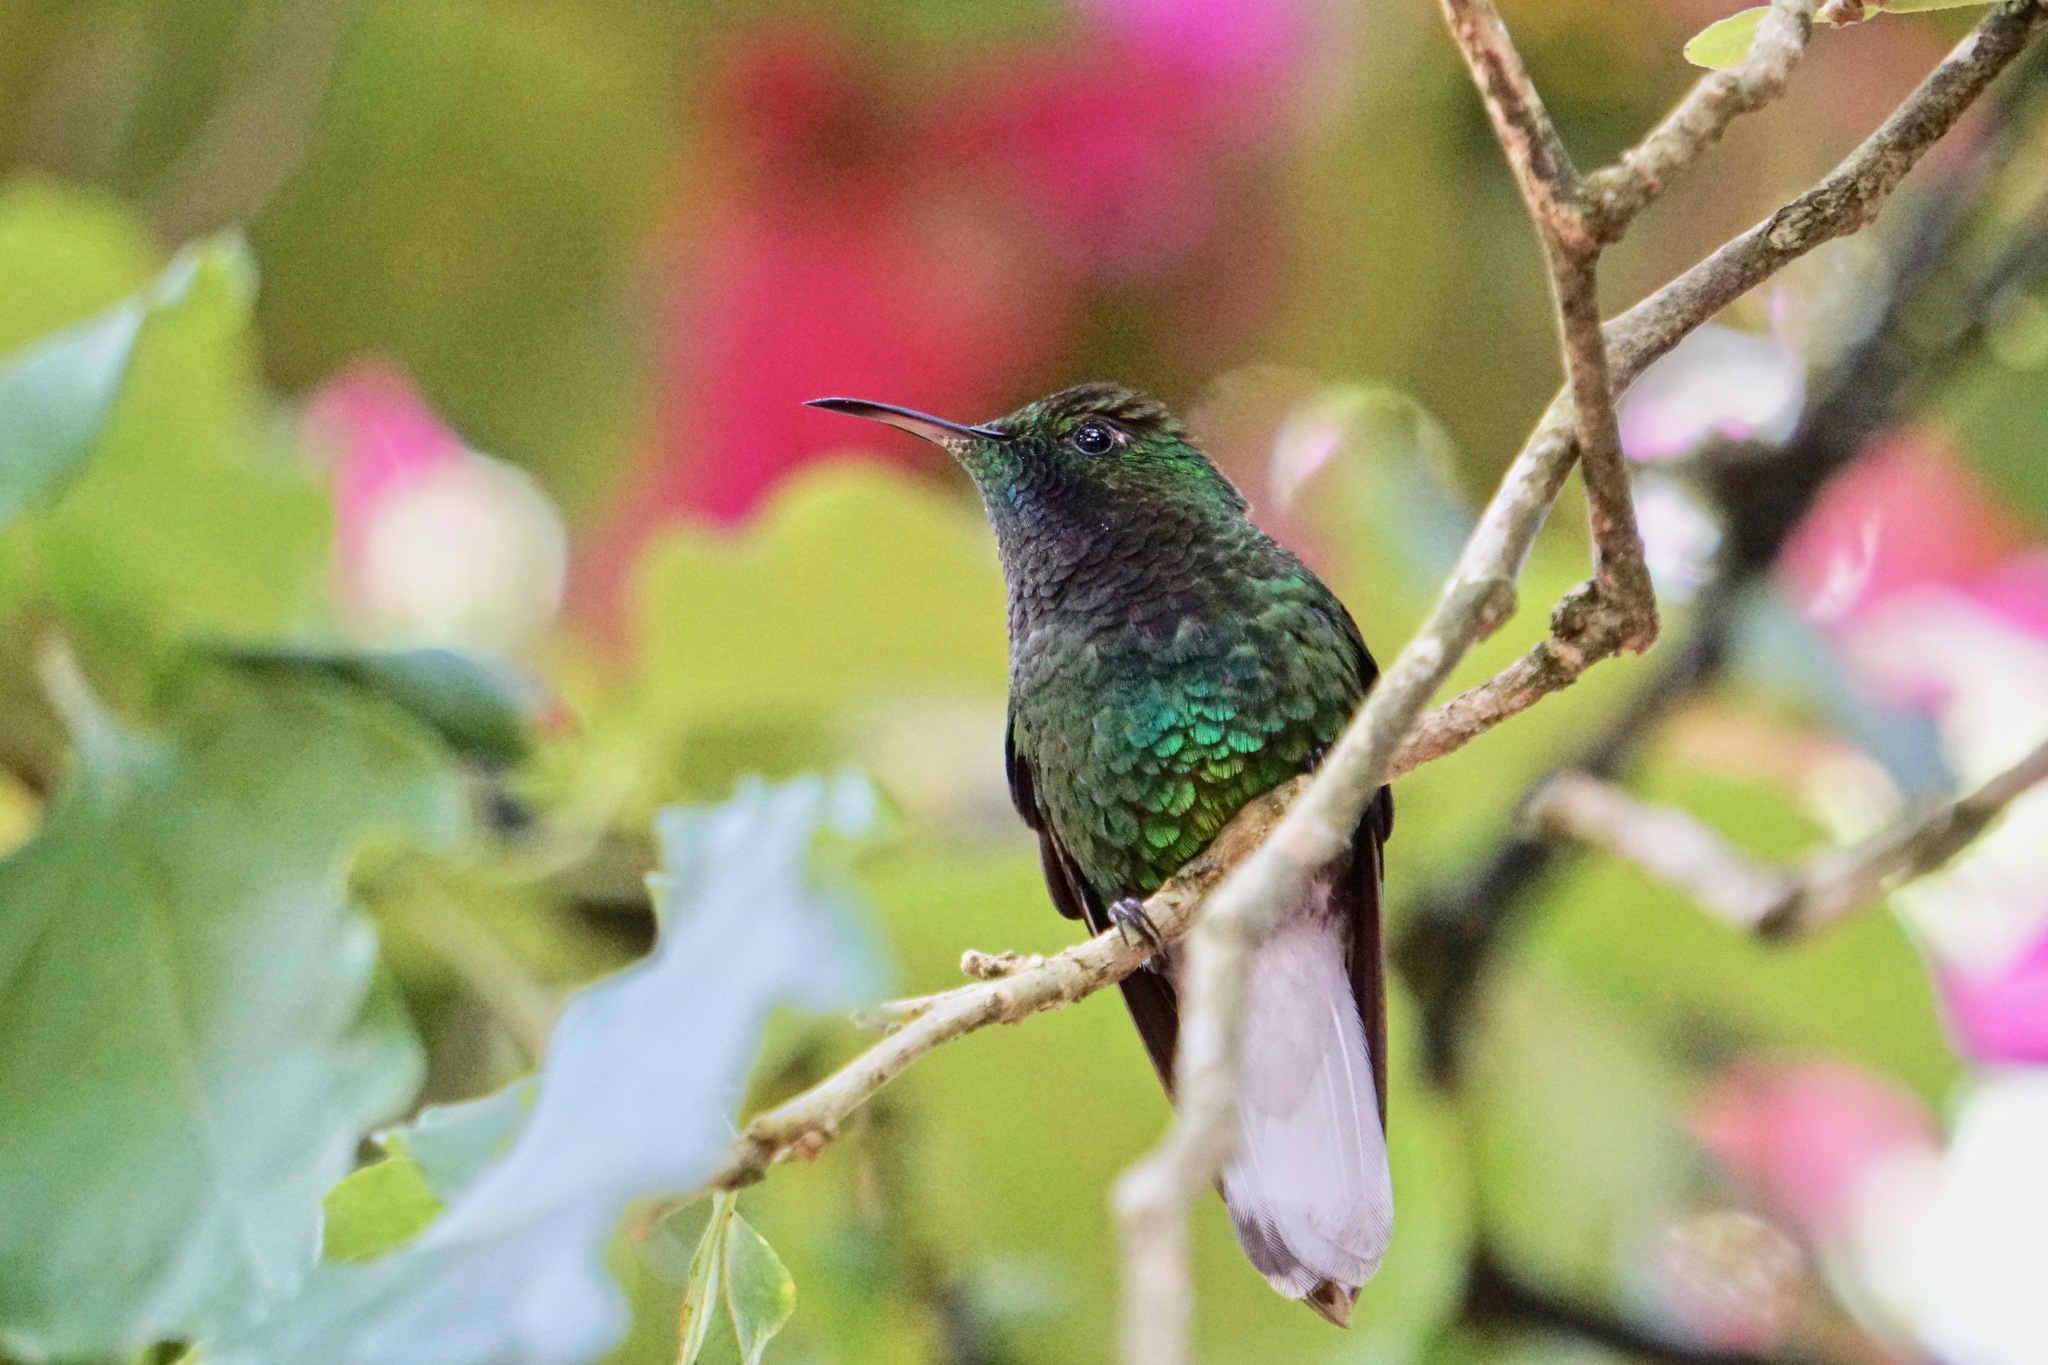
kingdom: Animalia
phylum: Chordata
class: Aves
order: Apodiformes
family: Trochilidae
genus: Microchera
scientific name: Microchera cupreiceps
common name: Coppery-headed emerald
